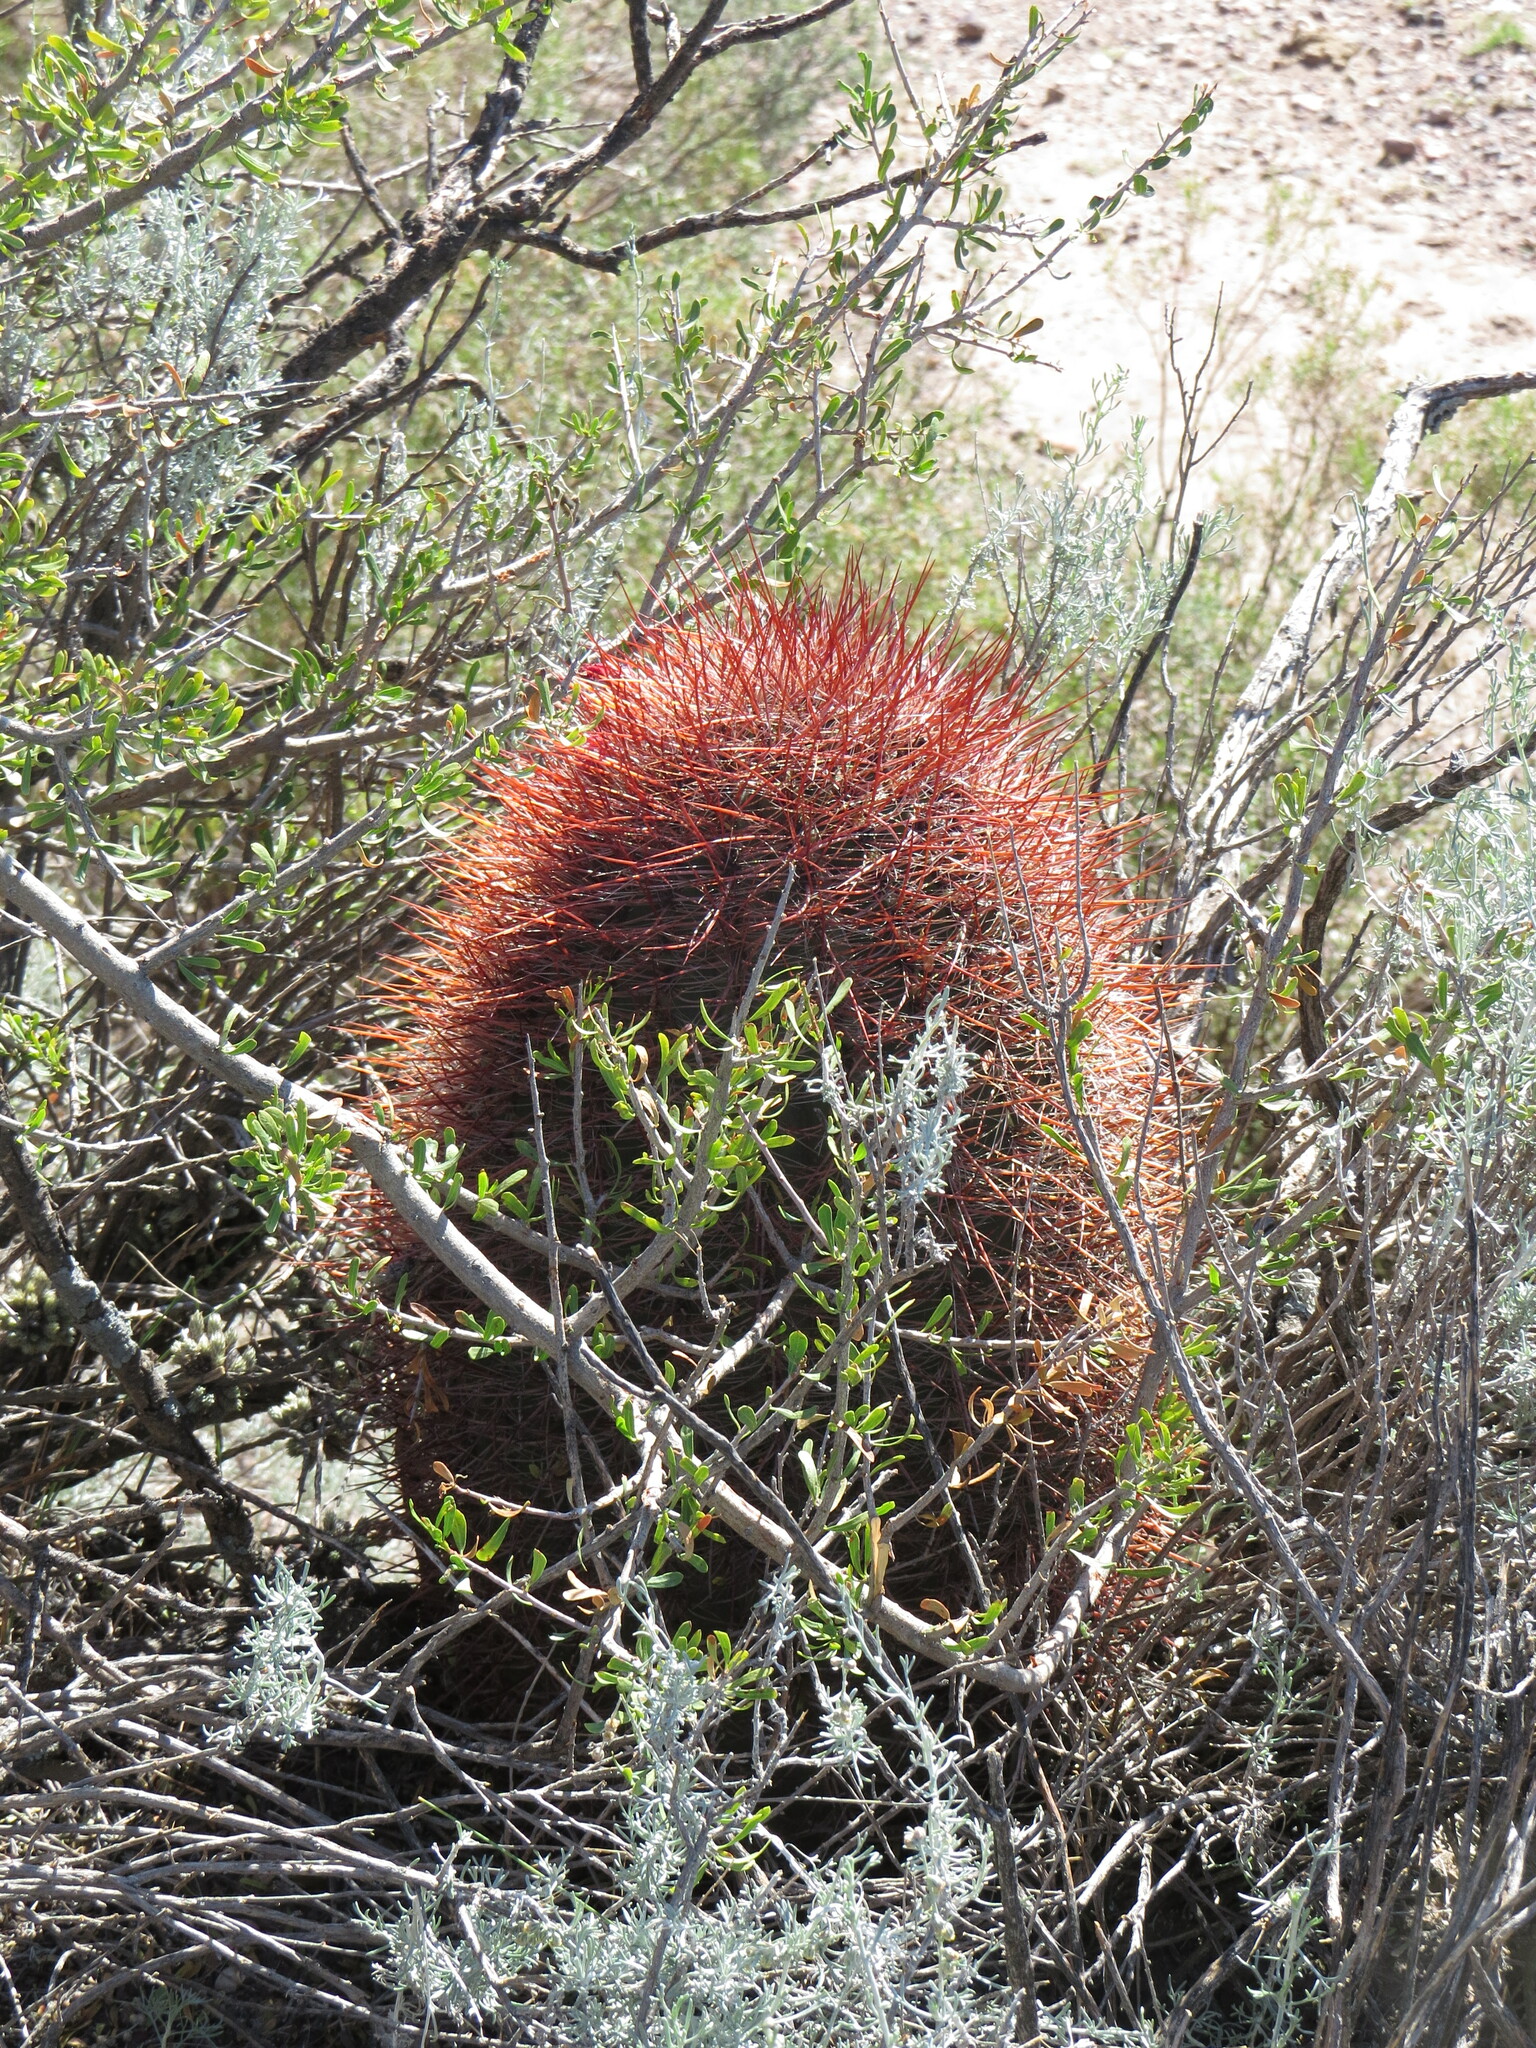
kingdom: Plantae
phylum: Tracheophyta
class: Magnoliopsida
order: Caryophyllales
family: Cactaceae
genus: Denmoza
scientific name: Denmoza rhodacantha
